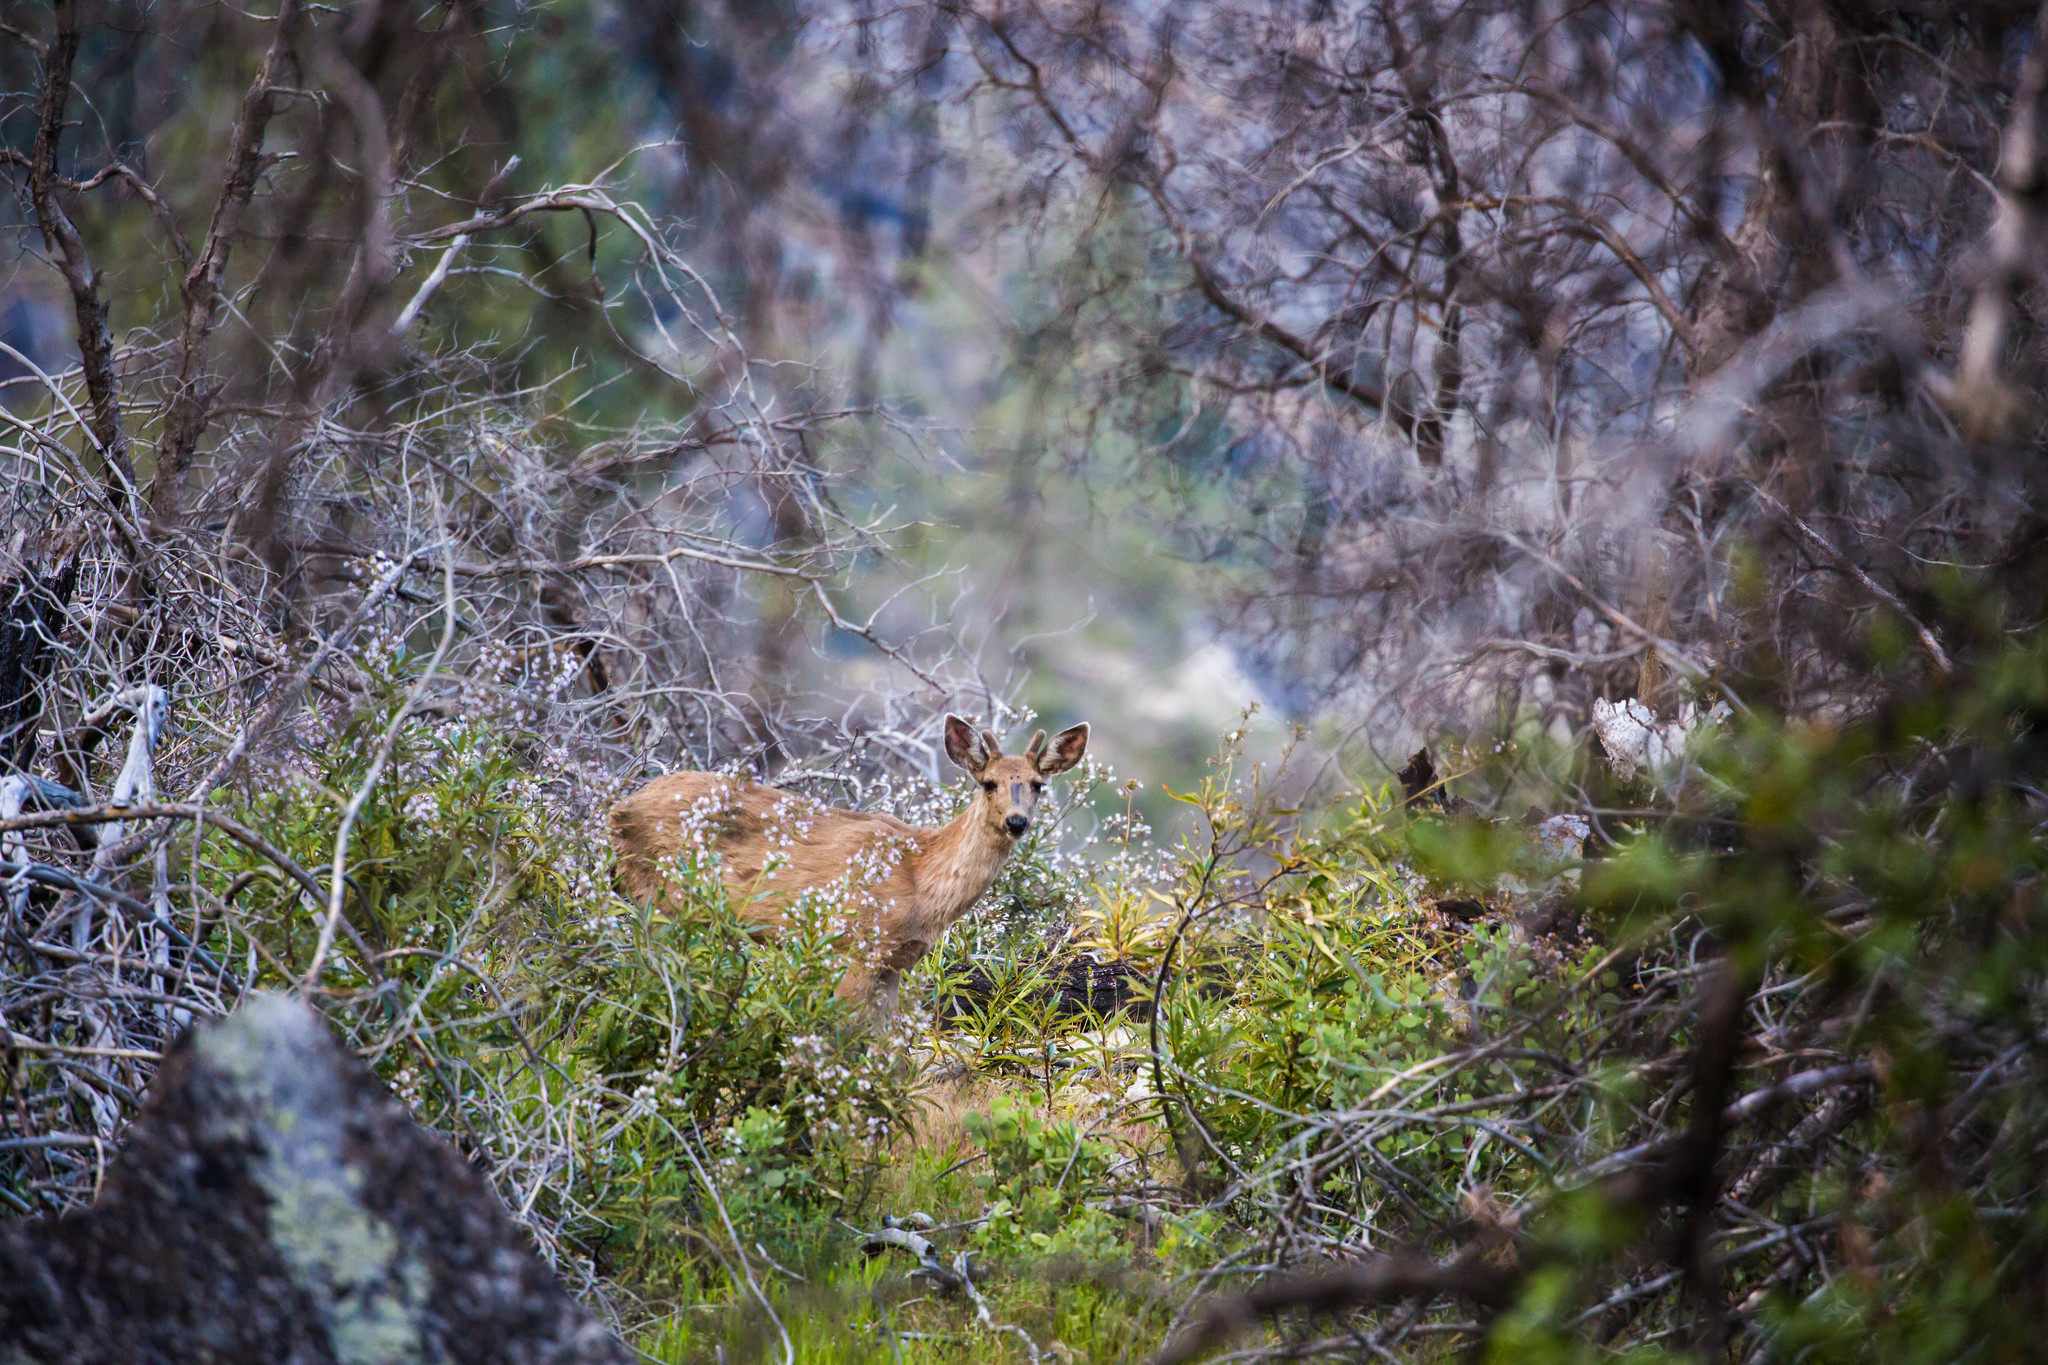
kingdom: Animalia
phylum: Chordata
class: Mammalia
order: Artiodactyla
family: Cervidae
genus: Odocoileus
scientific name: Odocoileus hemionus
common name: Mule deer
